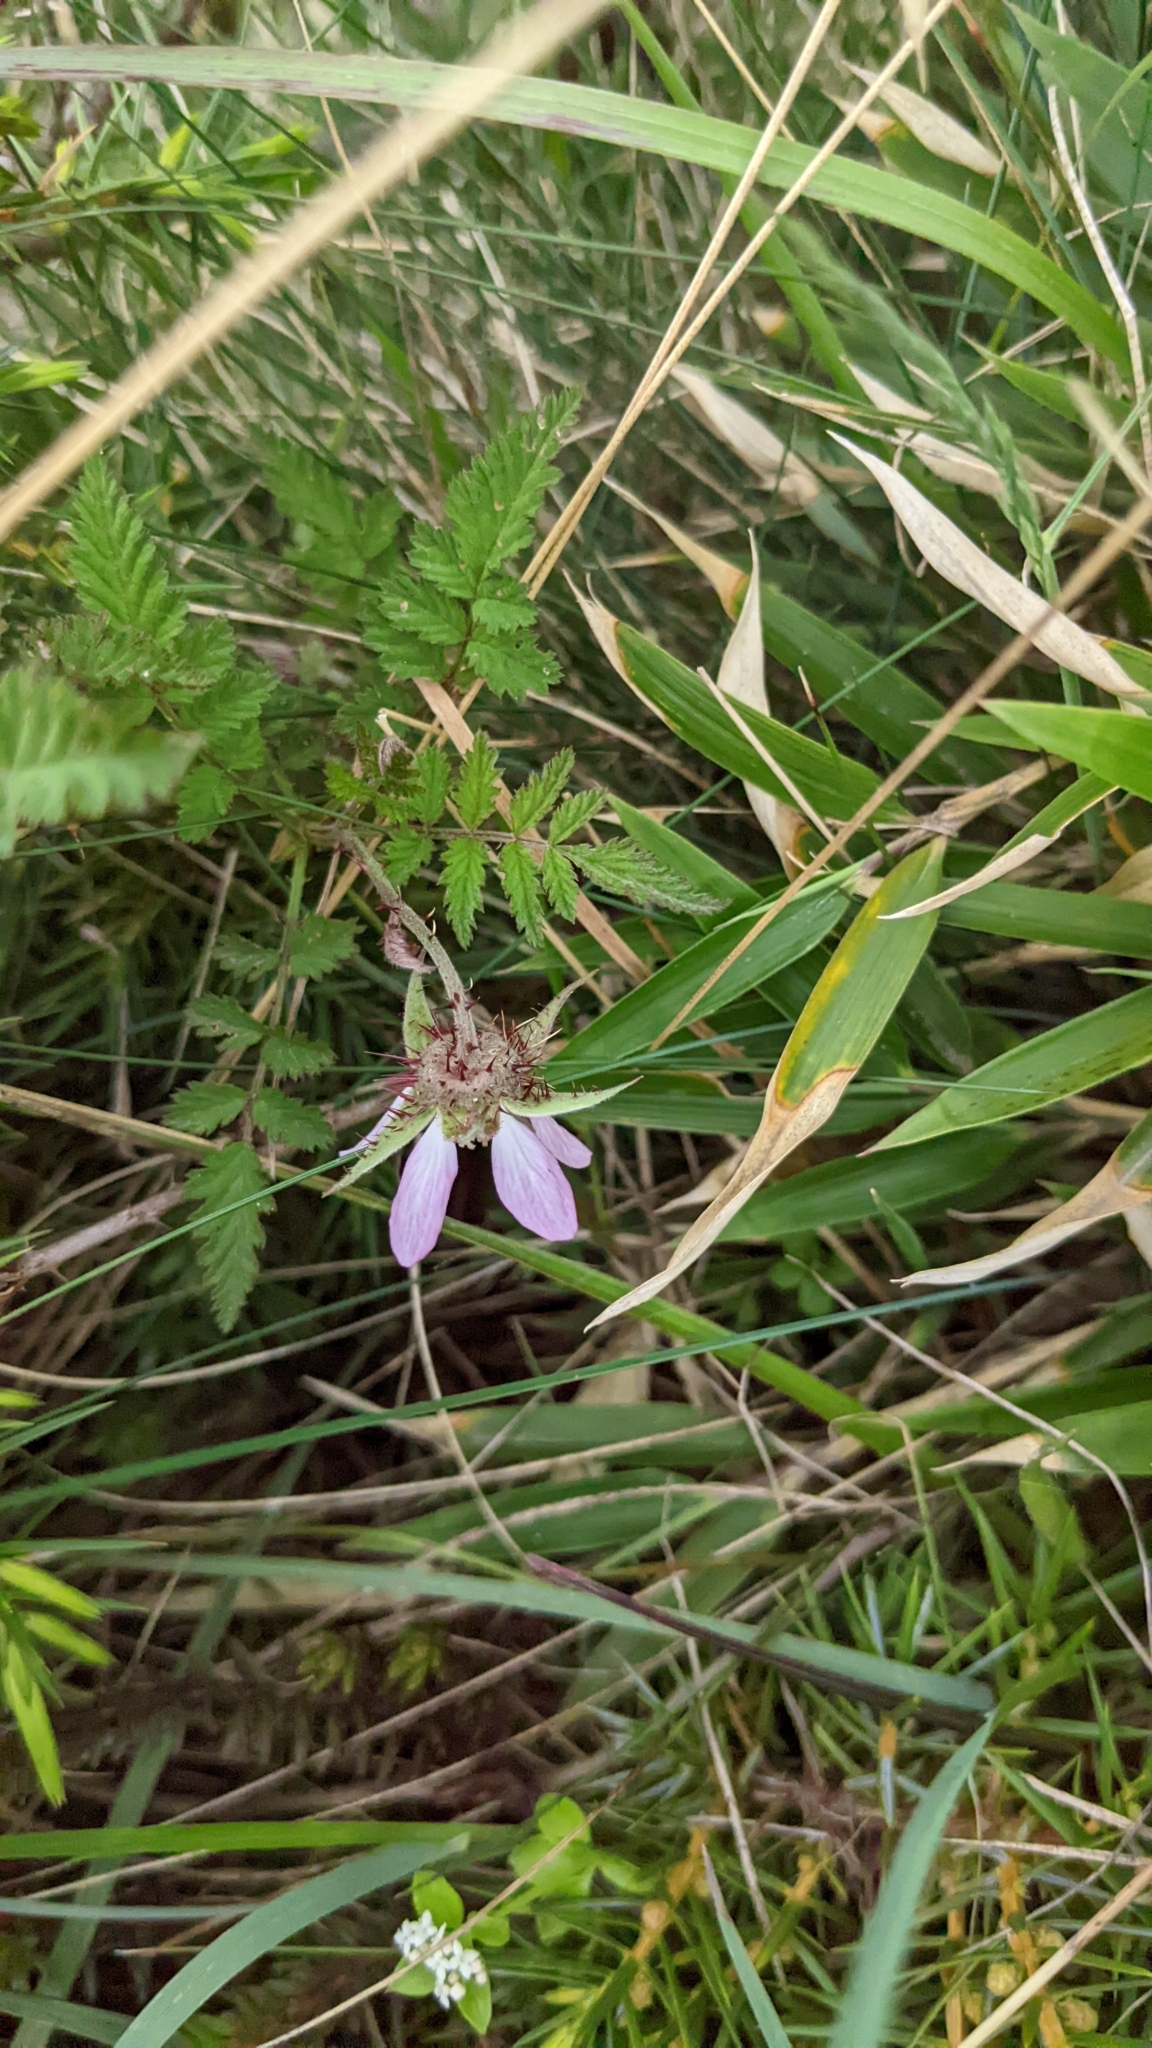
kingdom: Plantae
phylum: Tracheophyta
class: Magnoliopsida
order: Rosales
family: Rosaceae
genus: Rubus
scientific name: Rubus pungens
